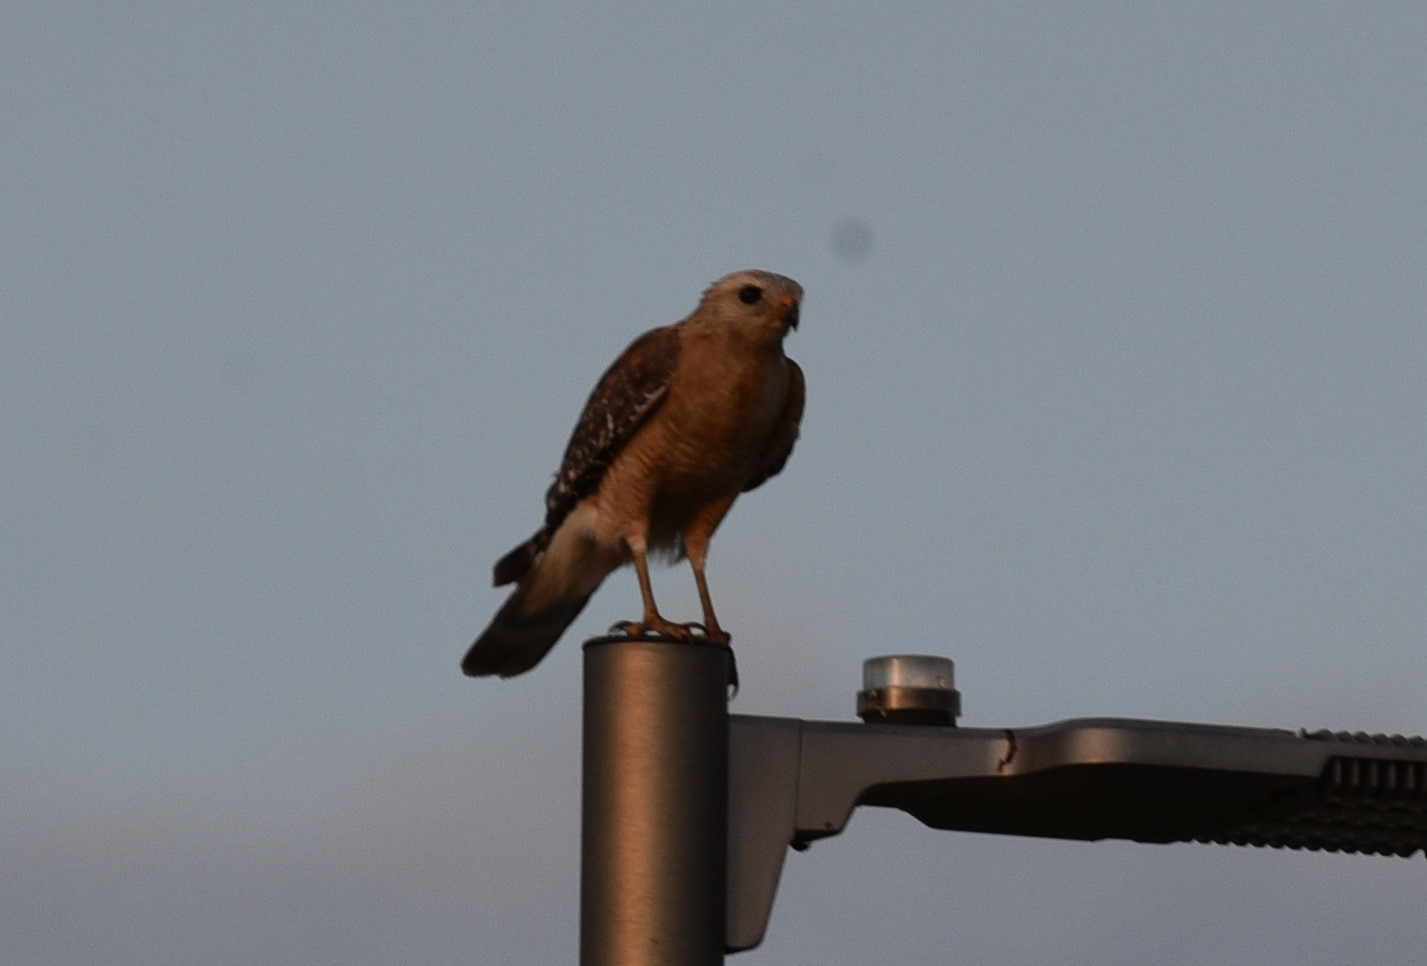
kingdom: Animalia
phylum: Chordata
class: Aves
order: Accipitriformes
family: Accipitridae
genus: Buteo
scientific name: Buteo lineatus
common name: Red-shouldered hawk
